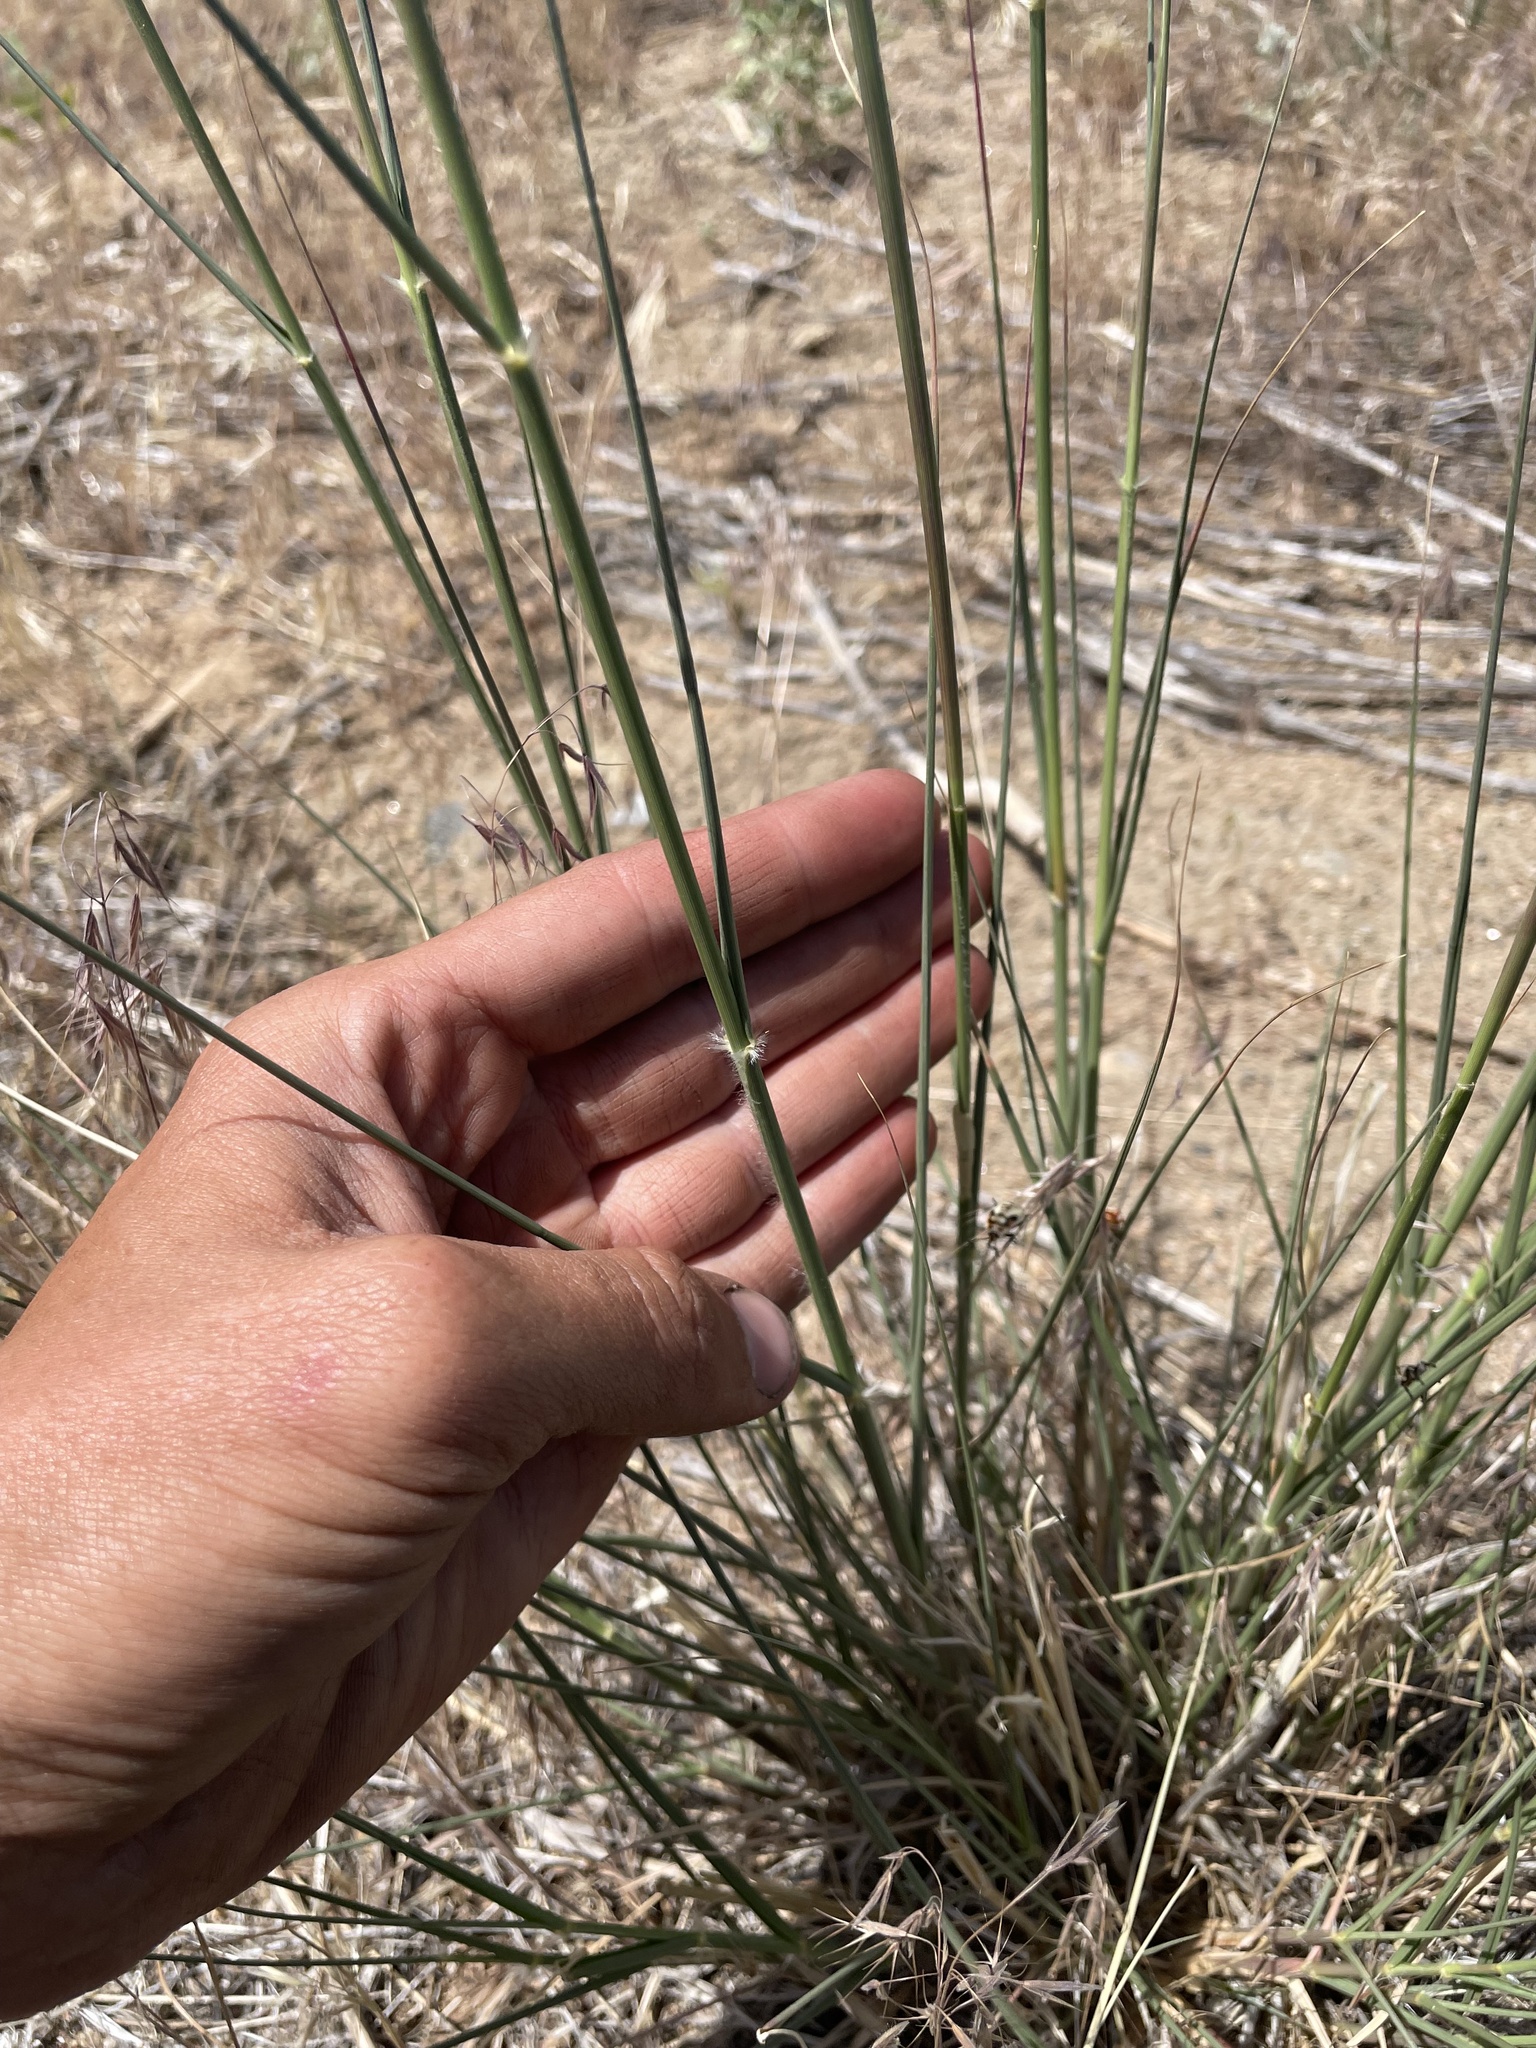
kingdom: Plantae
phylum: Tracheophyta
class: Liliopsida
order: Poales
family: Poaceae
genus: Sporobolus
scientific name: Sporobolus cryptandrus
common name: Sand dropseed
